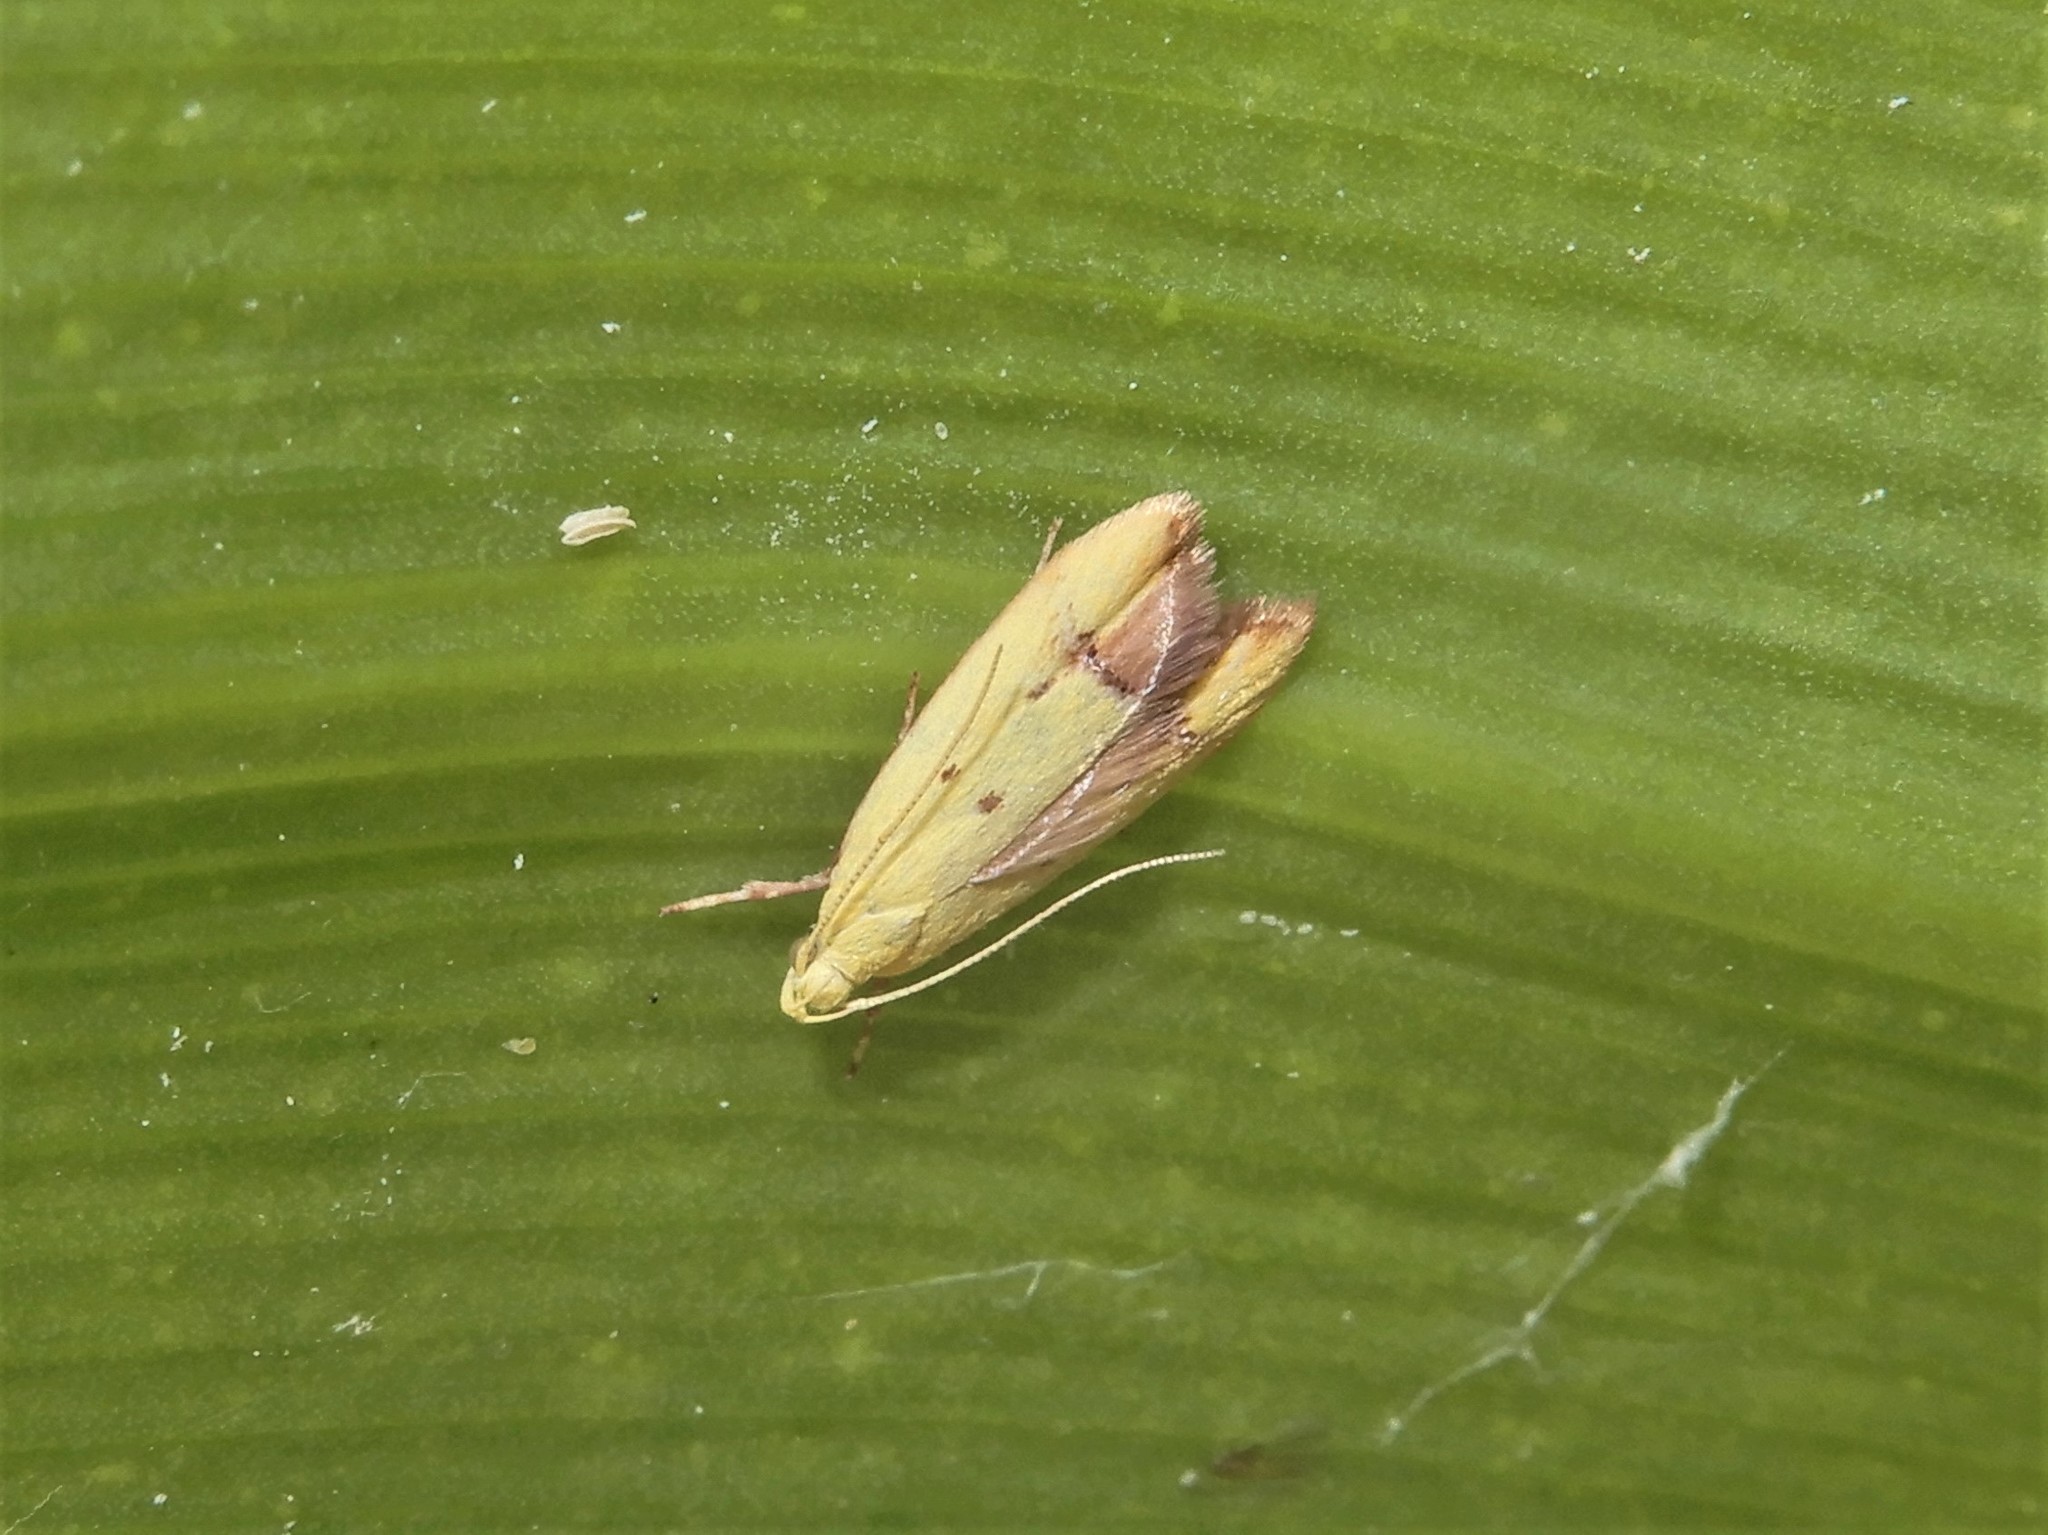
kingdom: Animalia
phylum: Arthropoda
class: Insecta
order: Lepidoptera
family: Oecophoridae
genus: Gymnobathra
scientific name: Gymnobathra flavidella
